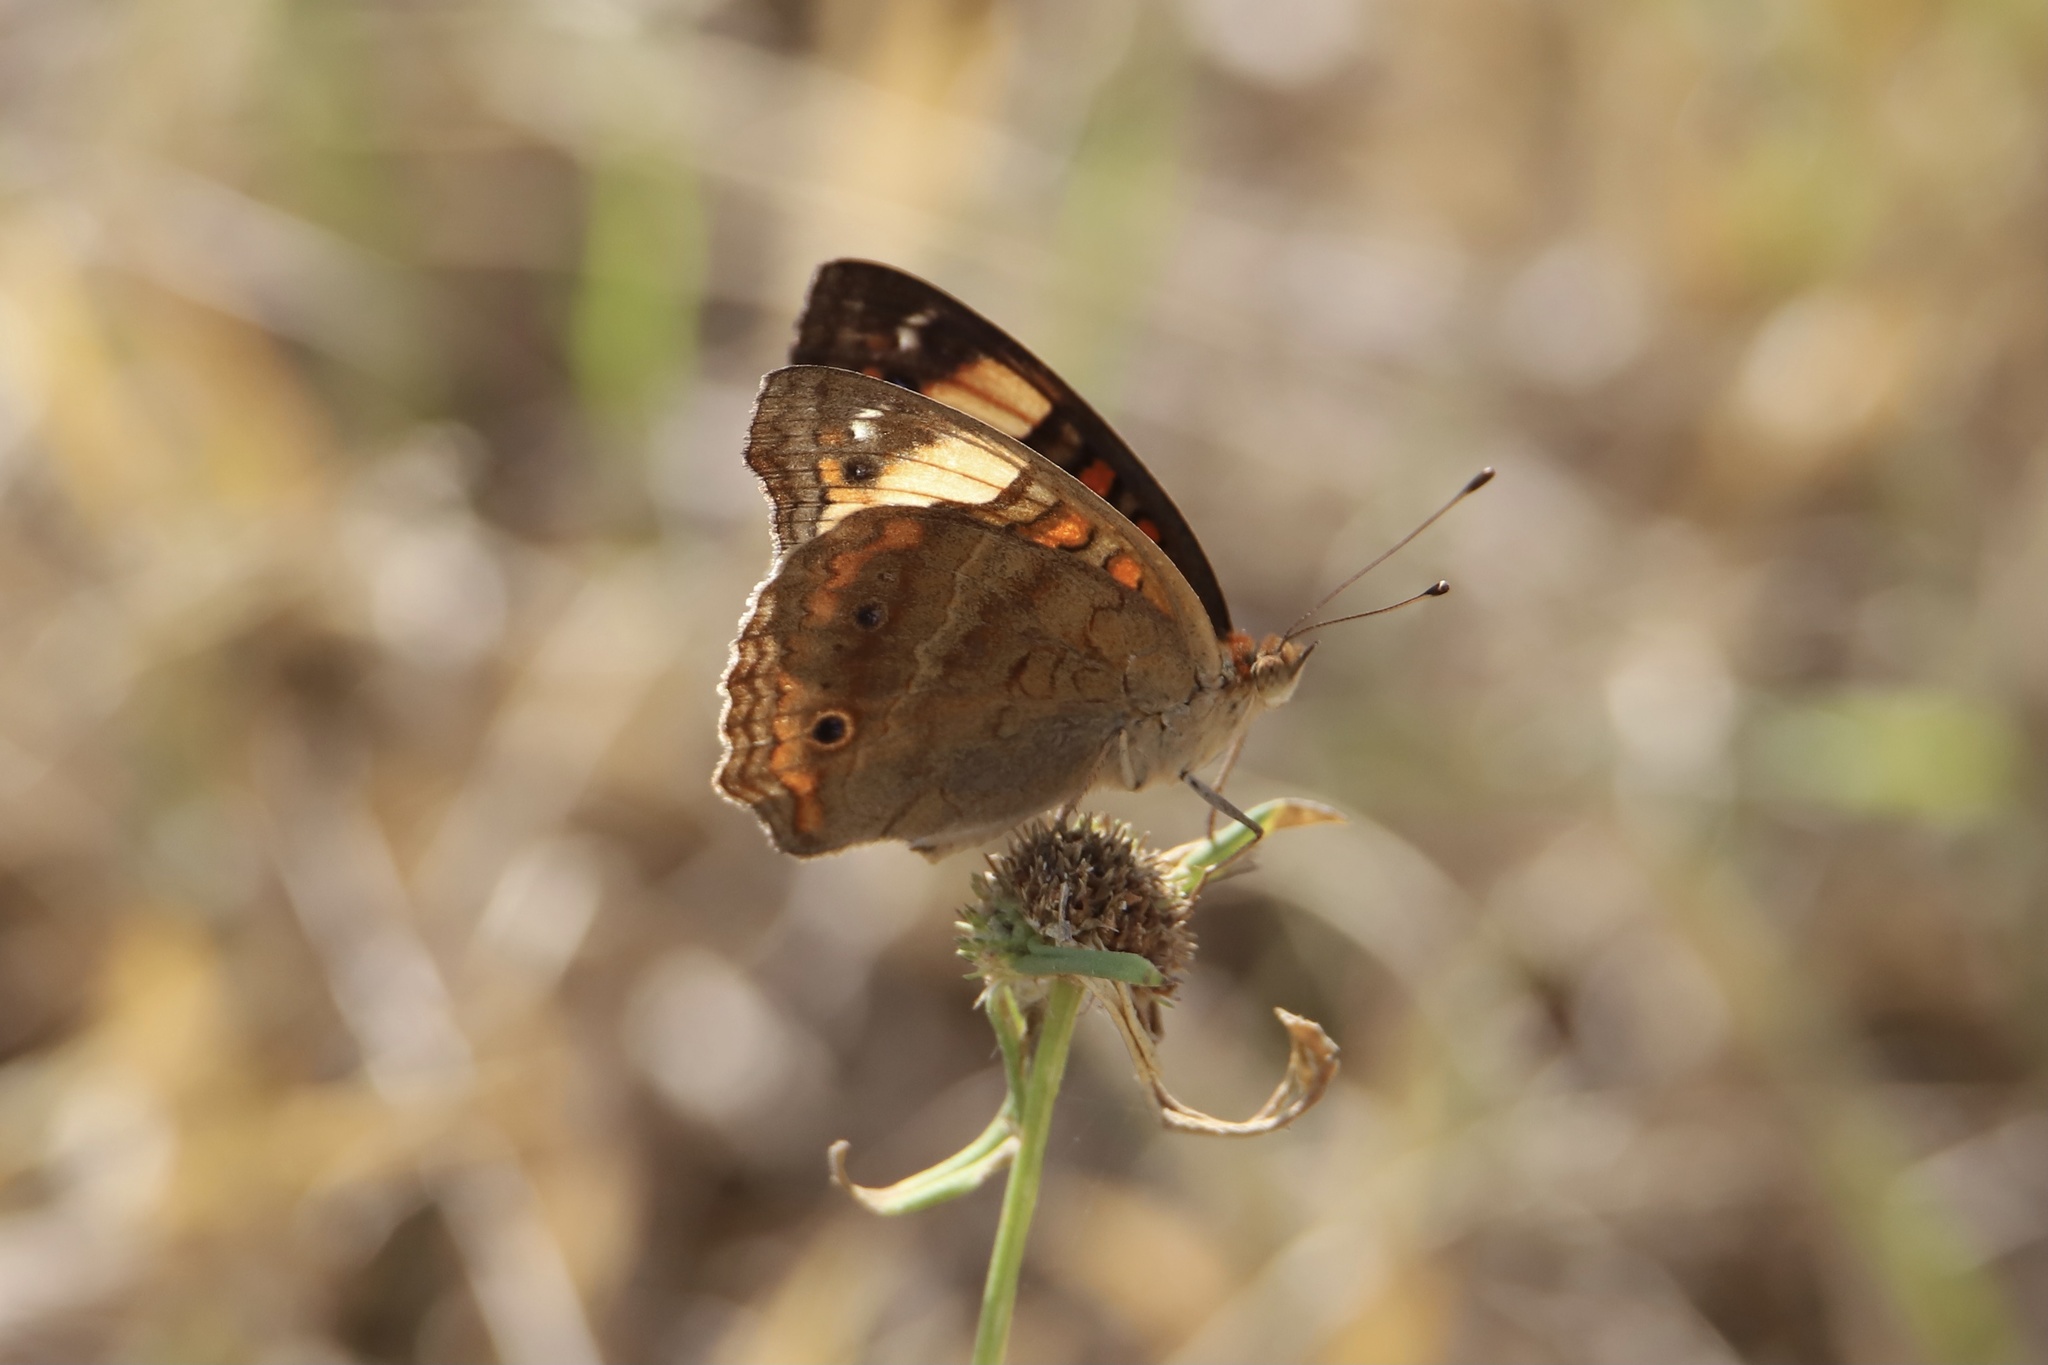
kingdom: Animalia
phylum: Arthropoda
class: Insecta
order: Lepidoptera
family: Nymphalidae
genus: Junonia
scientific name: Junonia lavinia
